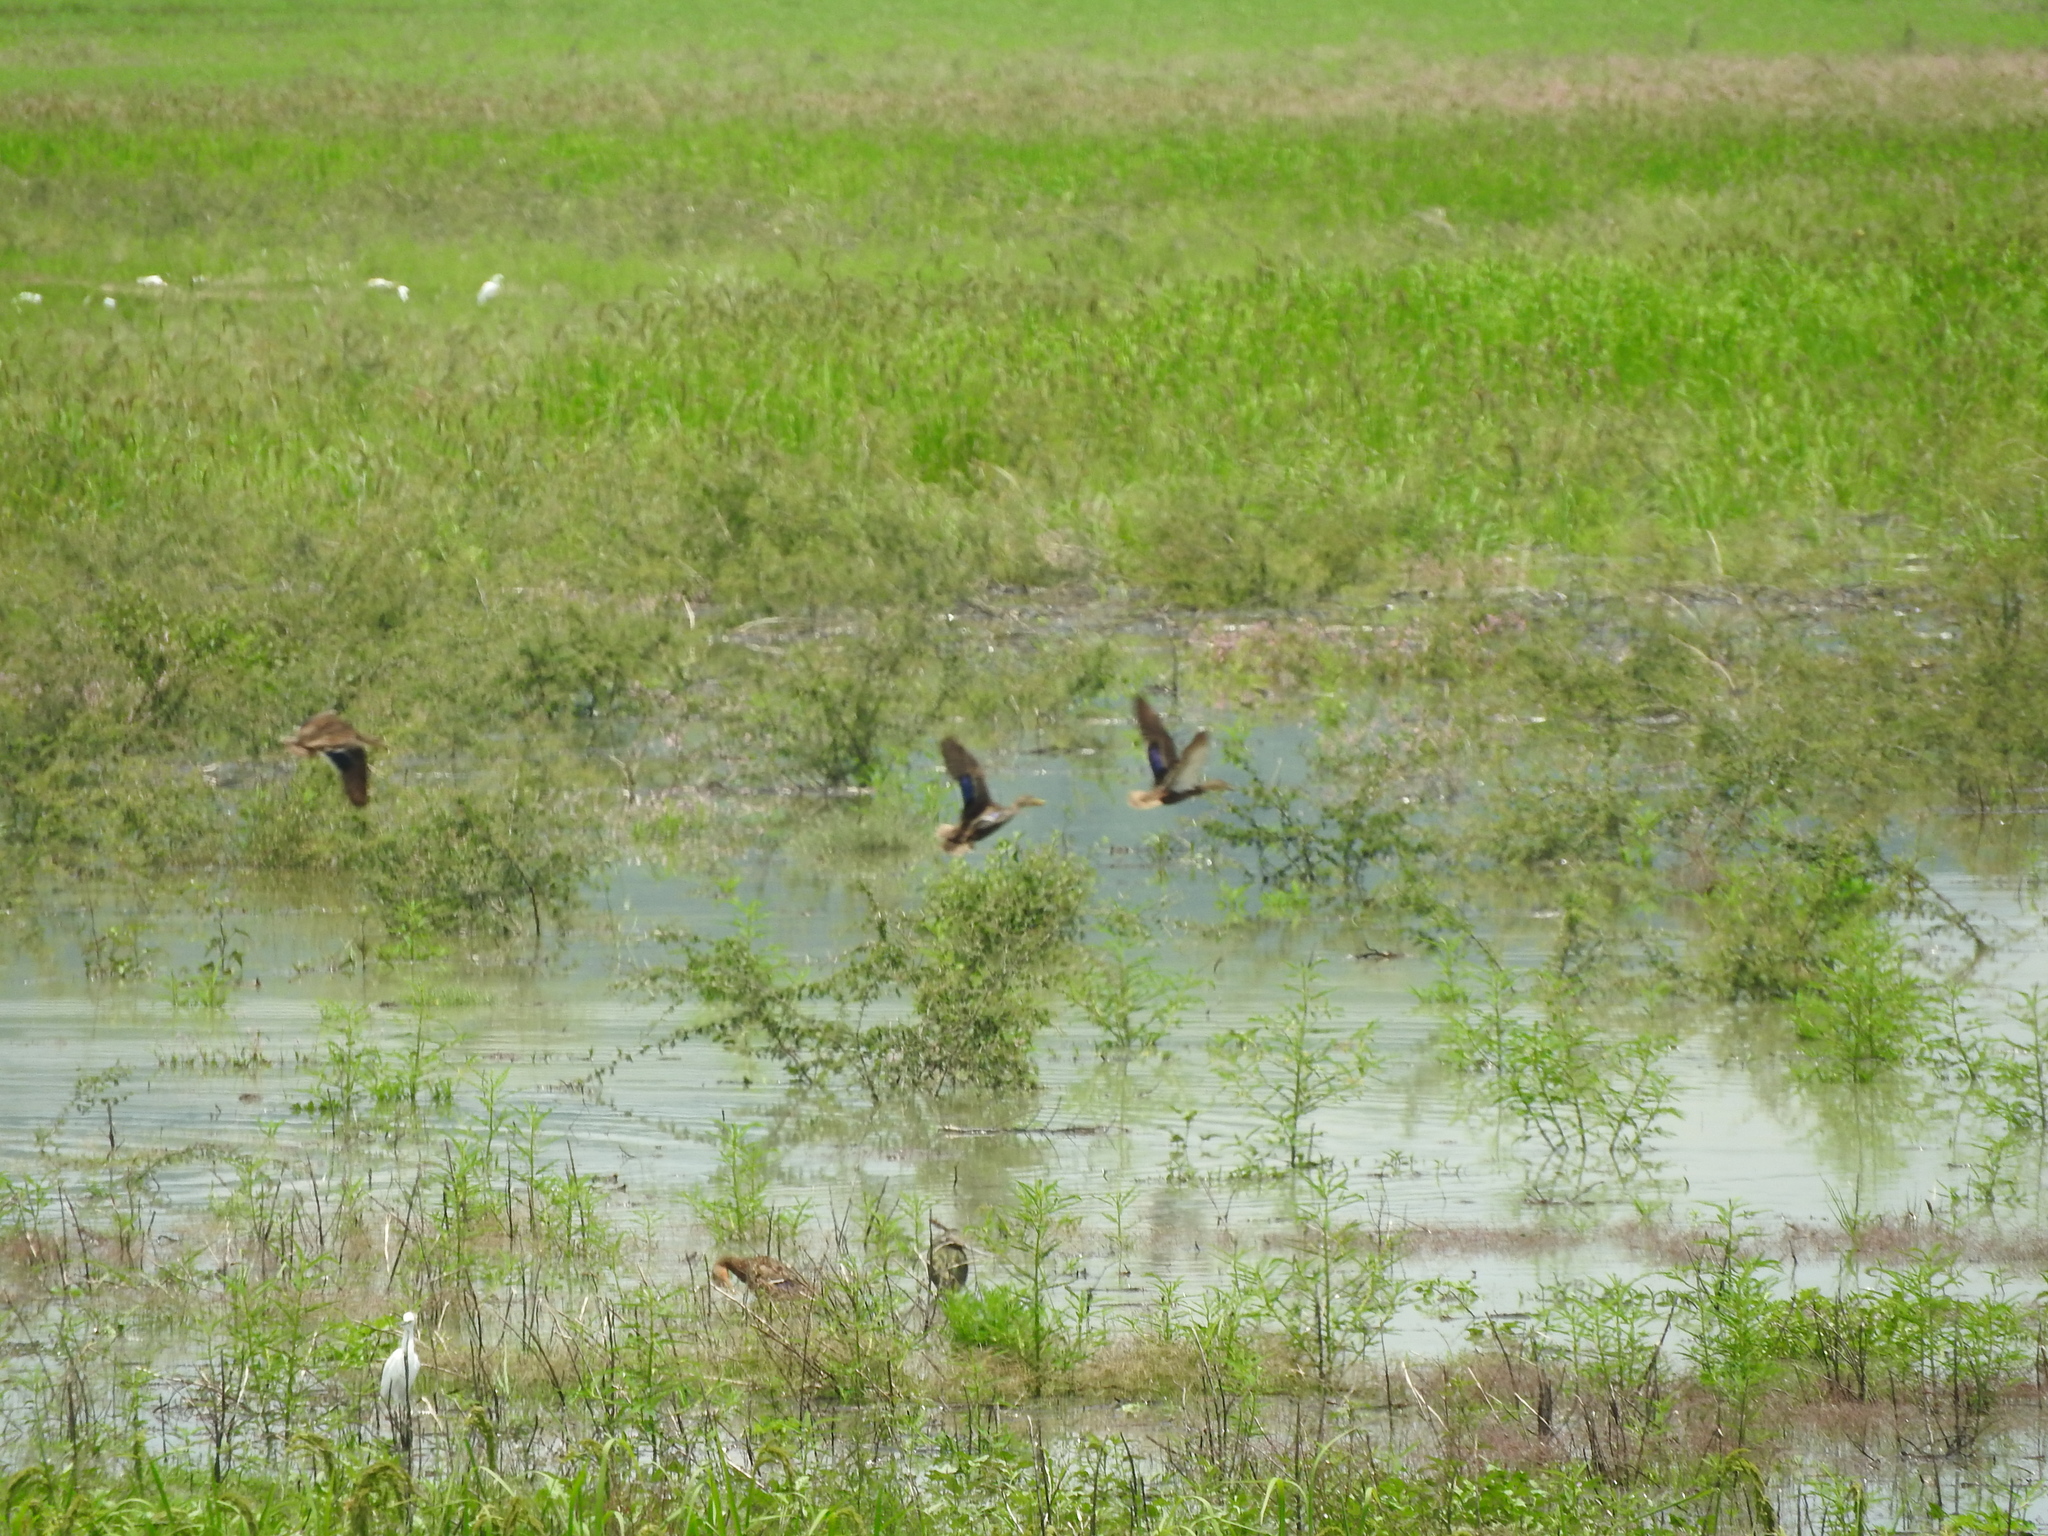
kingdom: Animalia
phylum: Chordata
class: Aves
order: Anseriformes
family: Anatidae
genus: Anas
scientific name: Anas diazi
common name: Mexican duck
